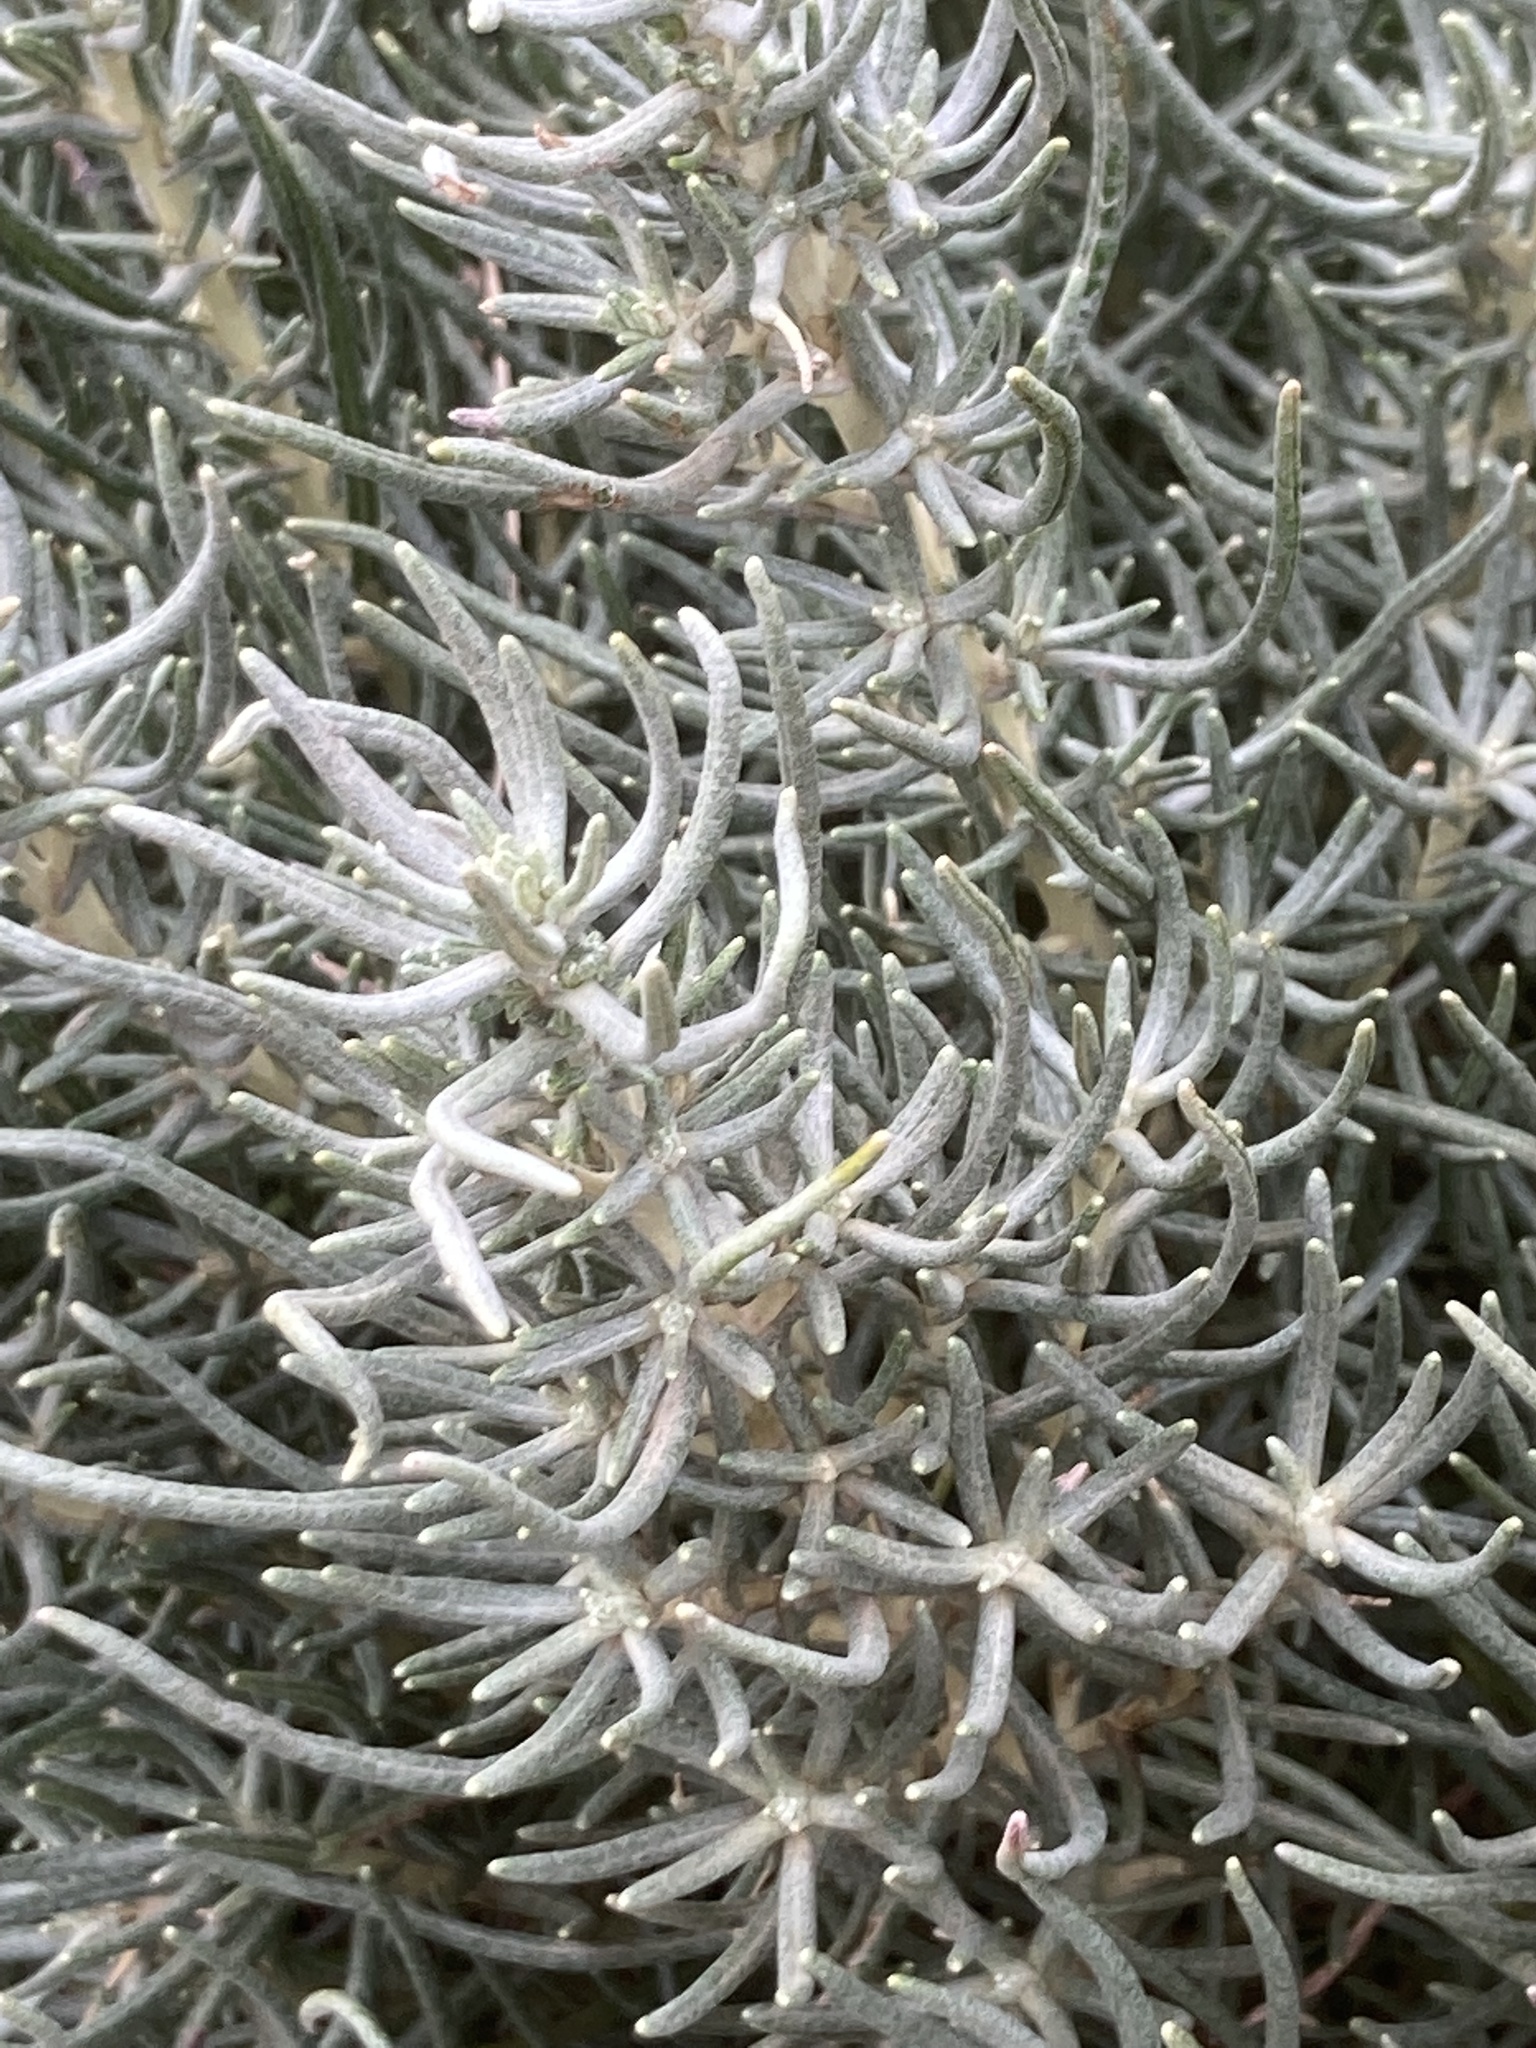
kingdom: Plantae
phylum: Tracheophyta
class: Magnoliopsida
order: Asterales
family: Asteraceae
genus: Helichrysum
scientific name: Helichrysum serotinum
